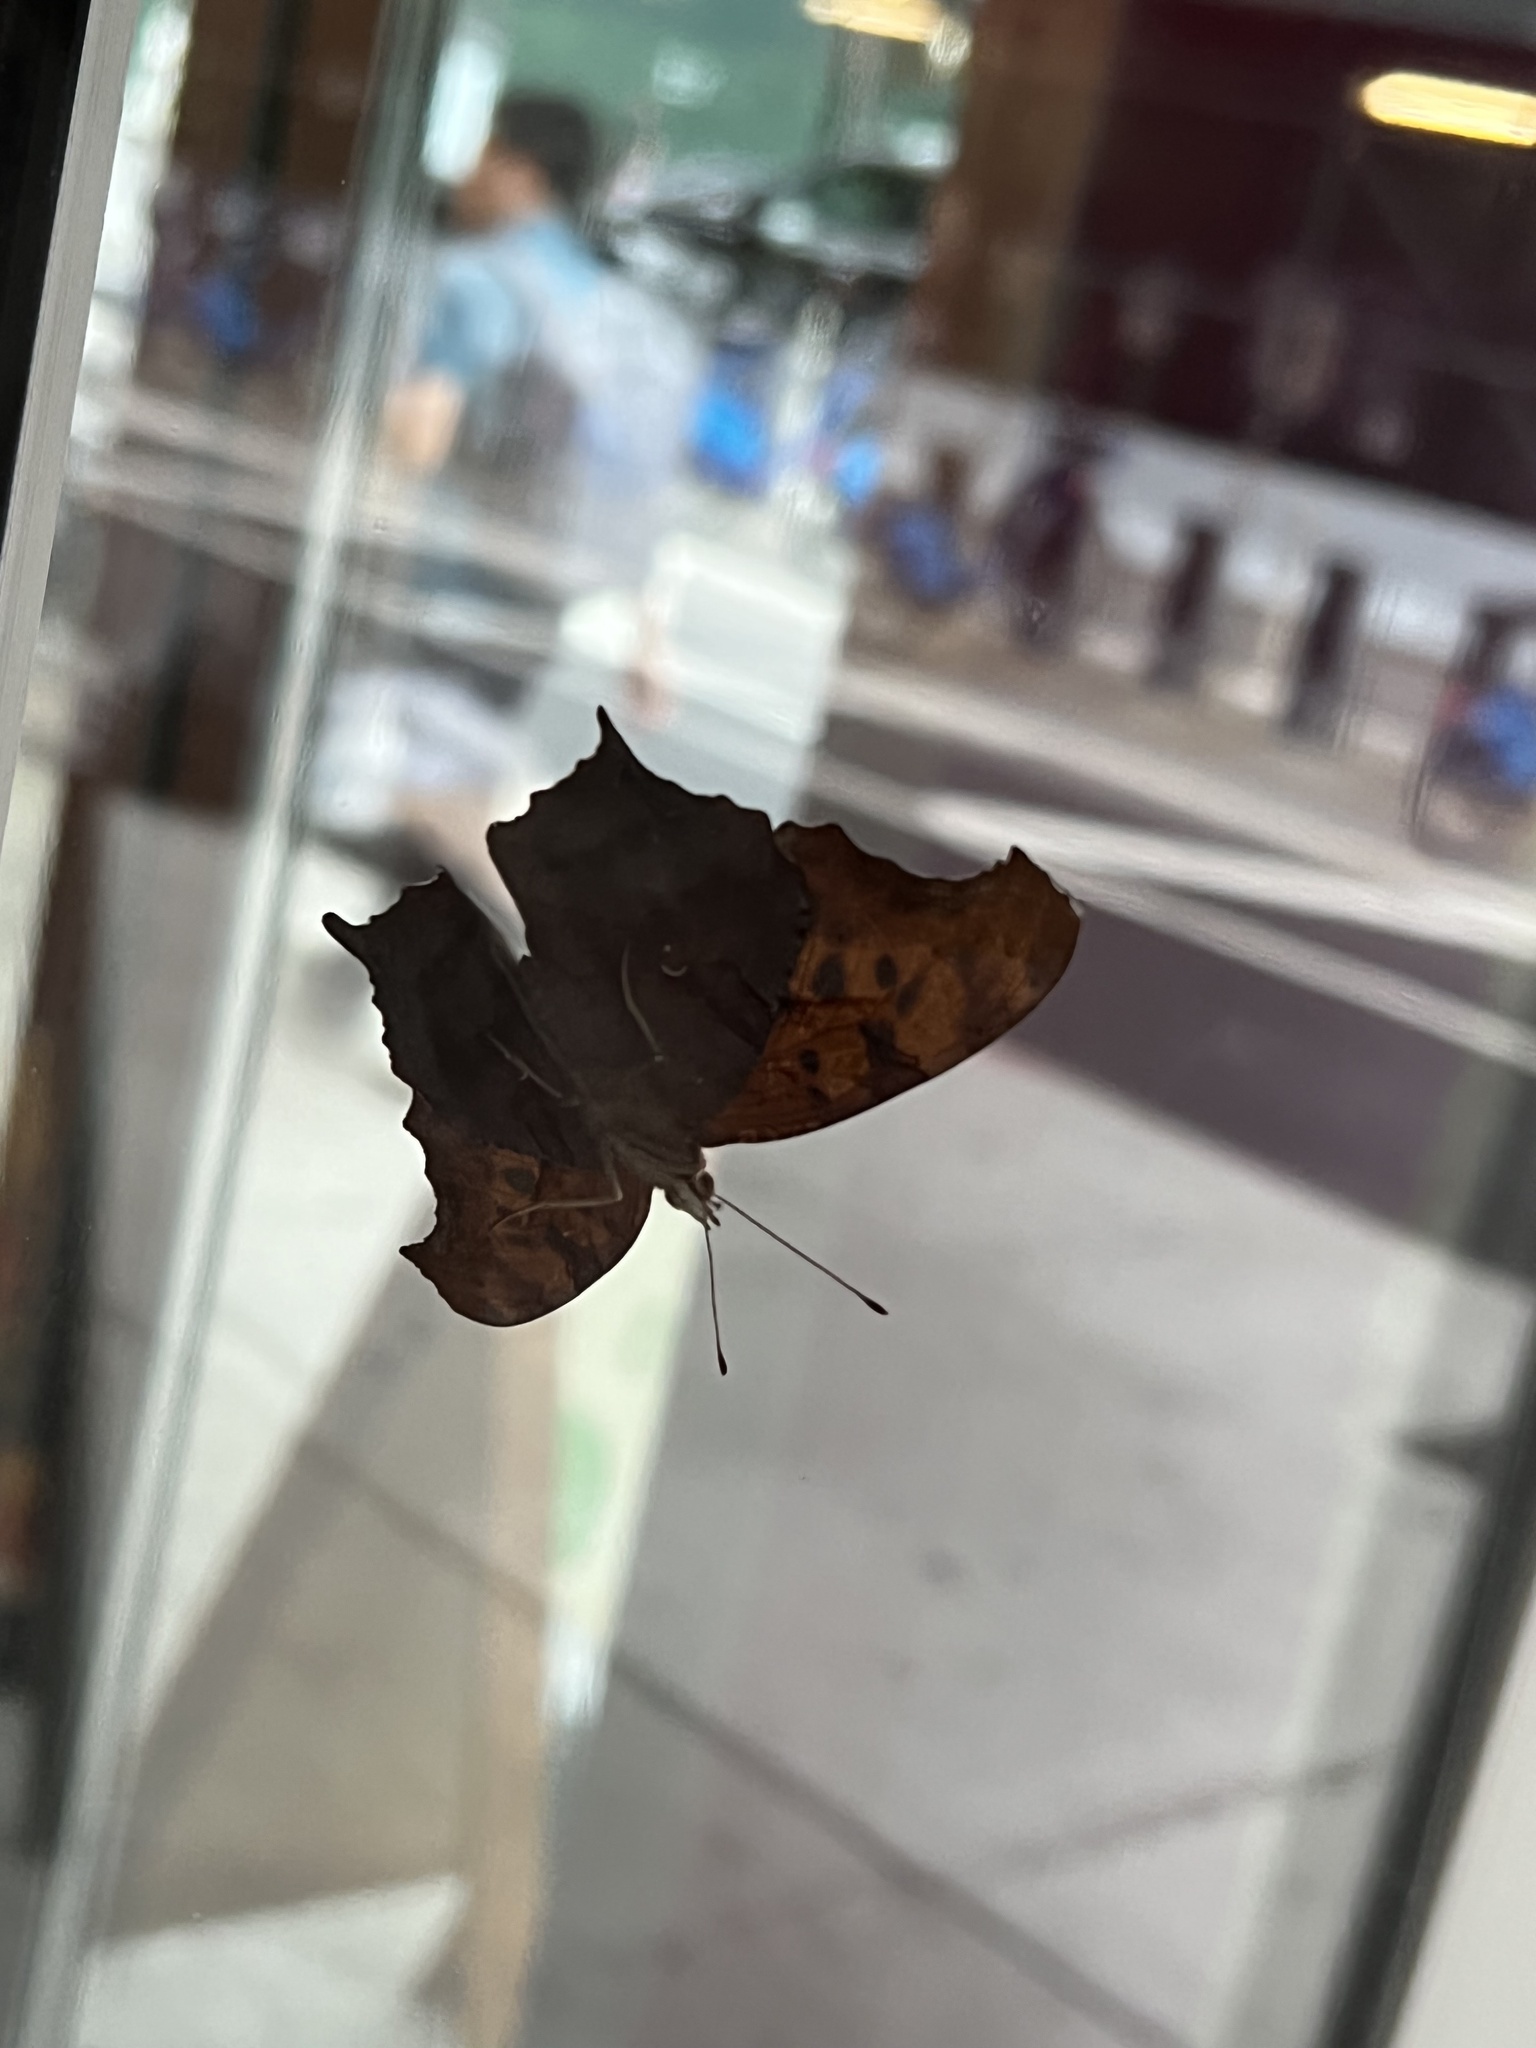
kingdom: Animalia
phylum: Arthropoda
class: Insecta
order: Lepidoptera
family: Nymphalidae
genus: Polygonia
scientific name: Polygonia interrogationis
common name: Question mark
